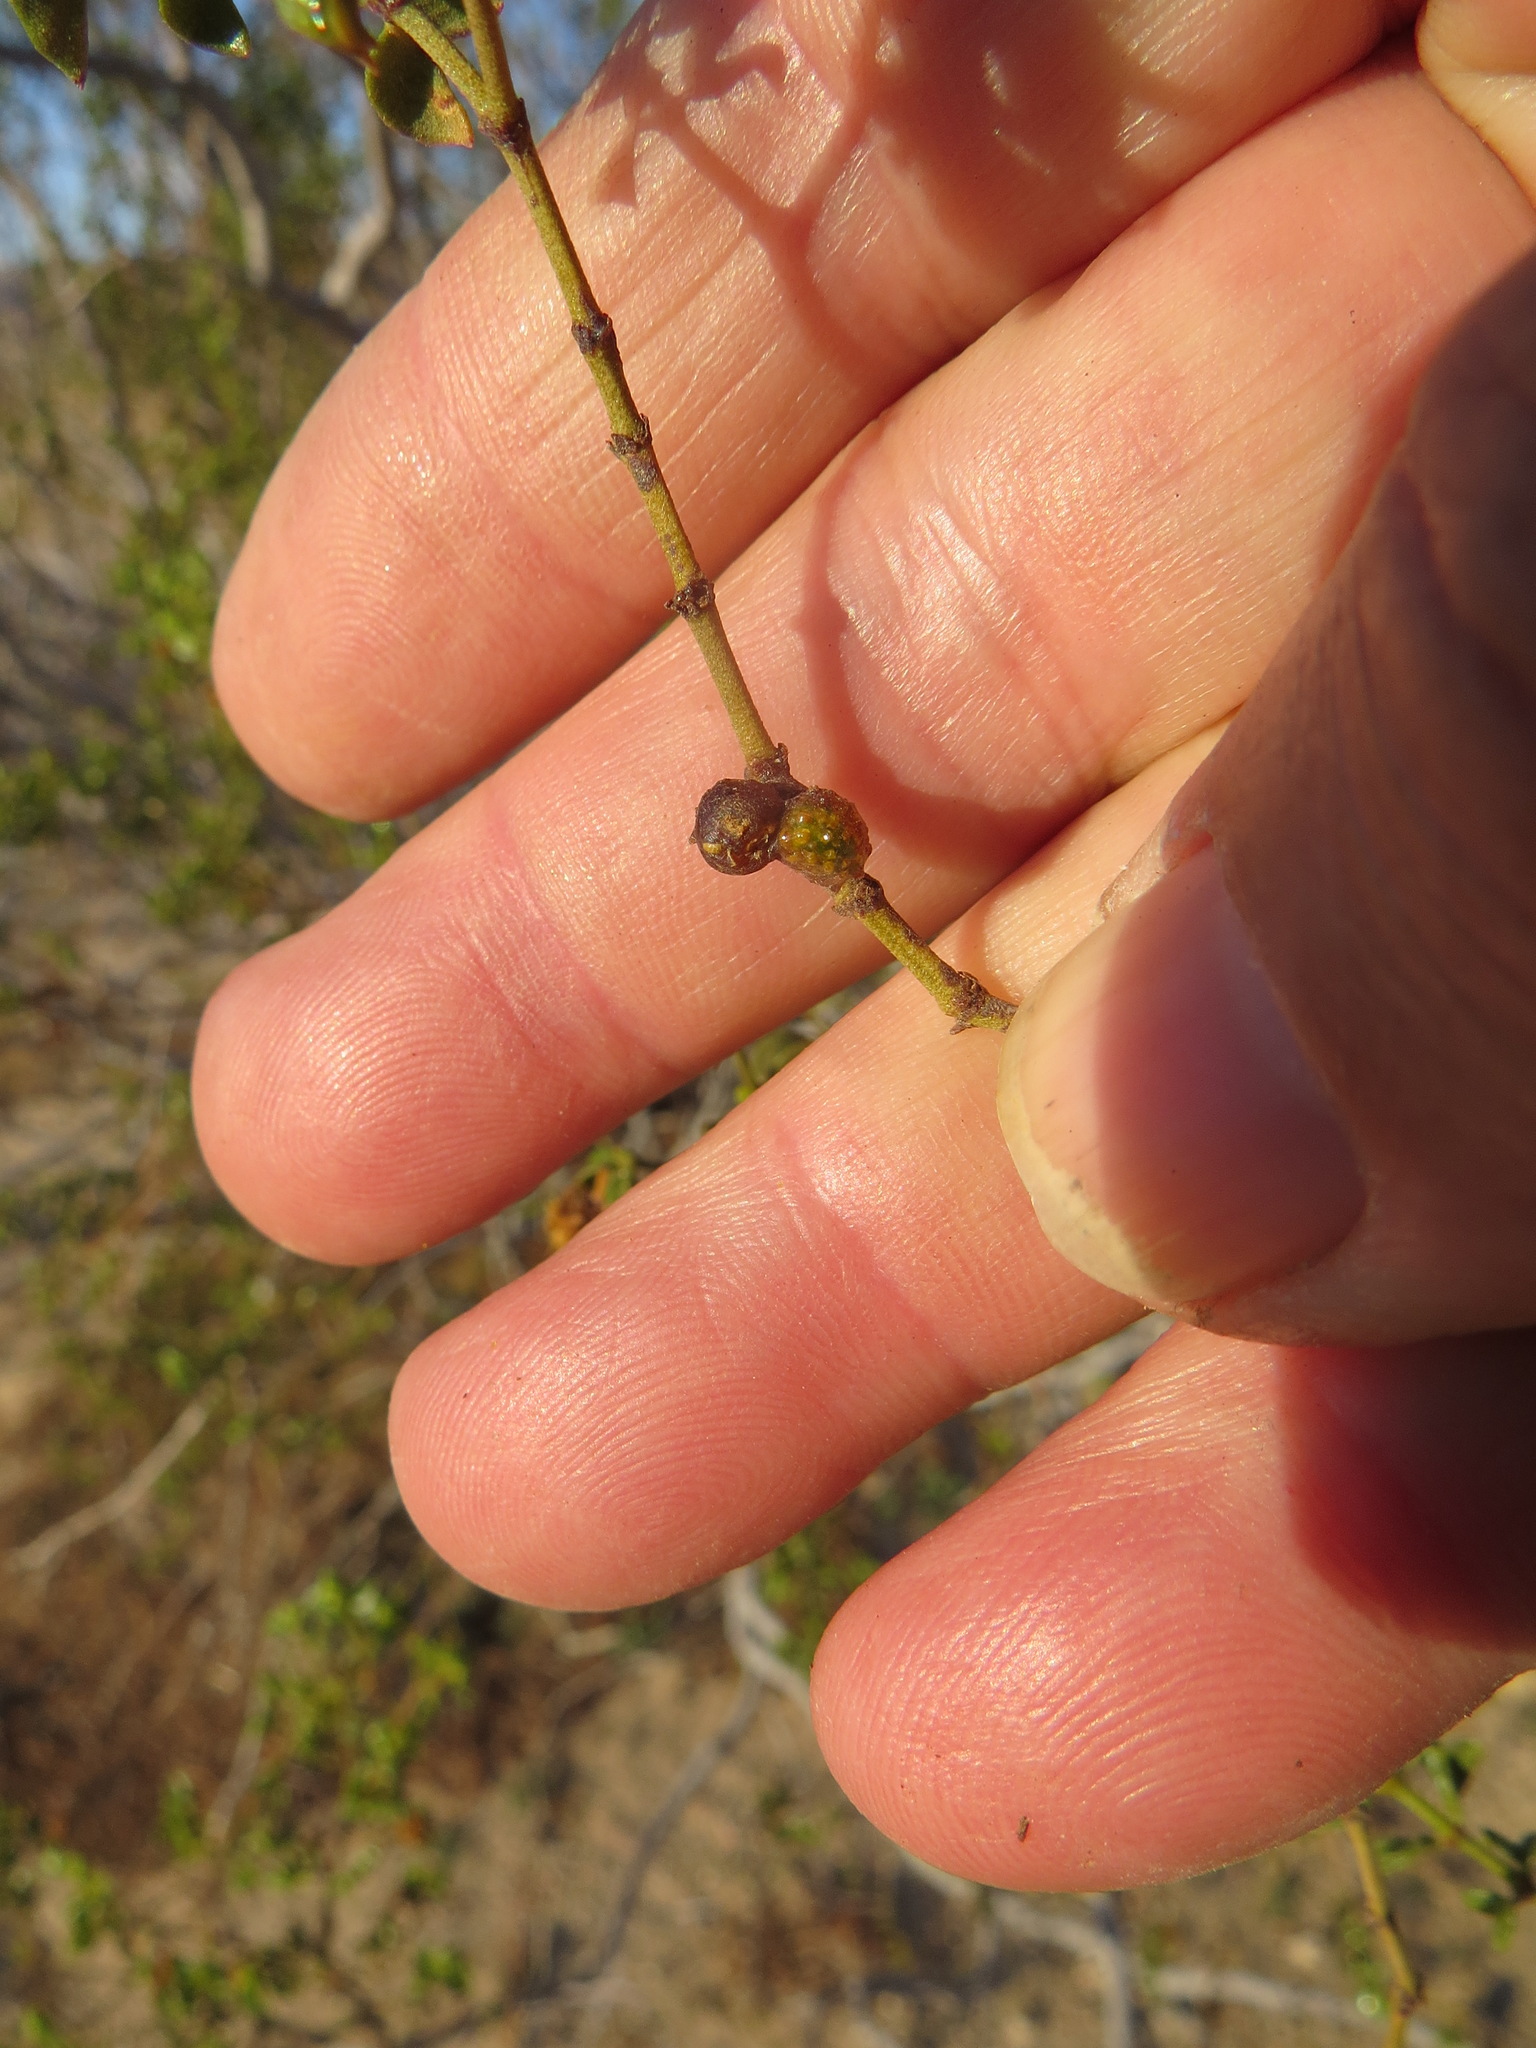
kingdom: Animalia
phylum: Arthropoda
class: Insecta
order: Diptera
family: Cecidomyiidae
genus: Asphondylia
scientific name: Asphondylia resinosa
